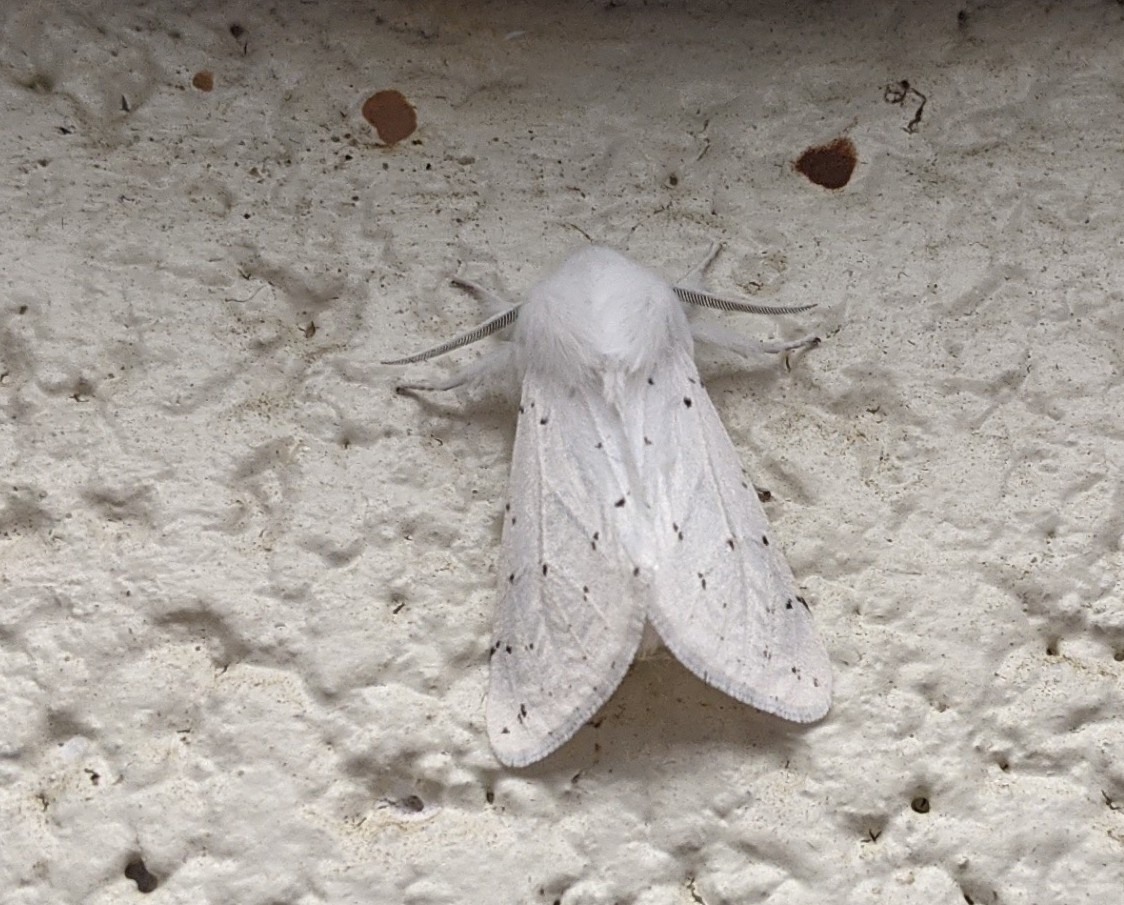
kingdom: Animalia
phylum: Arthropoda
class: Insecta
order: Lepidoptera
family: Erebidae
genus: Spilosoma
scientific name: Spilosoma vestalis
